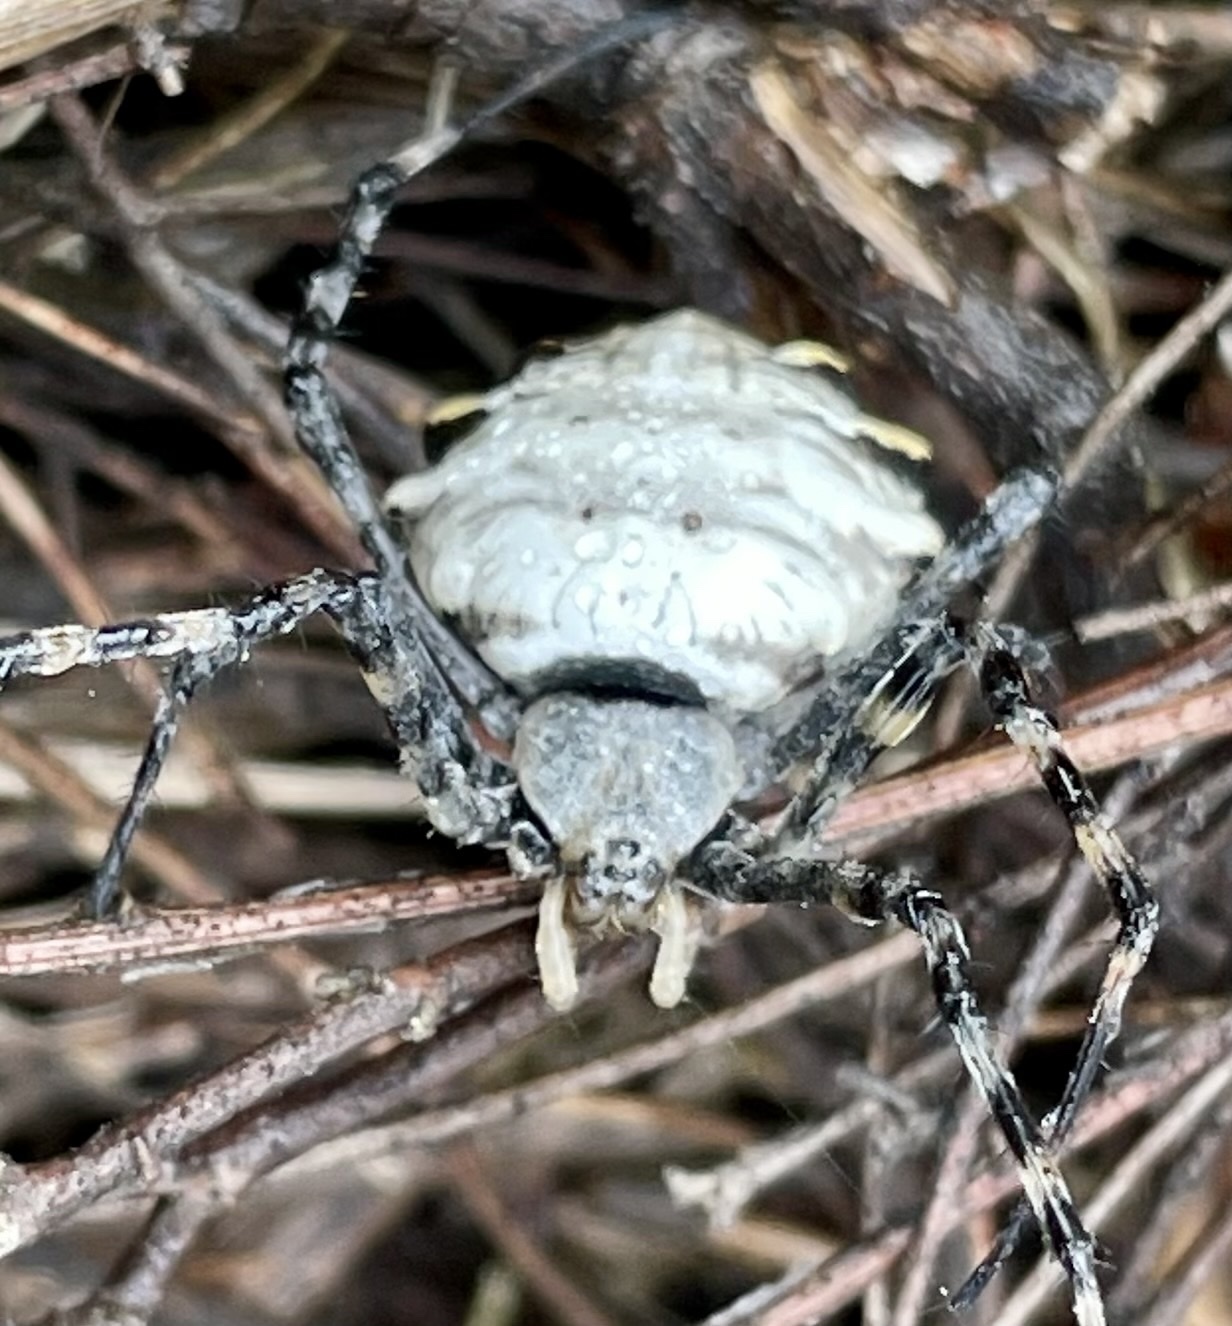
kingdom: Animalia
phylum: Arthropoda
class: Arachnida
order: Araneae
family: Araneidae
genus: Argiope
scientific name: Argiope lobata
